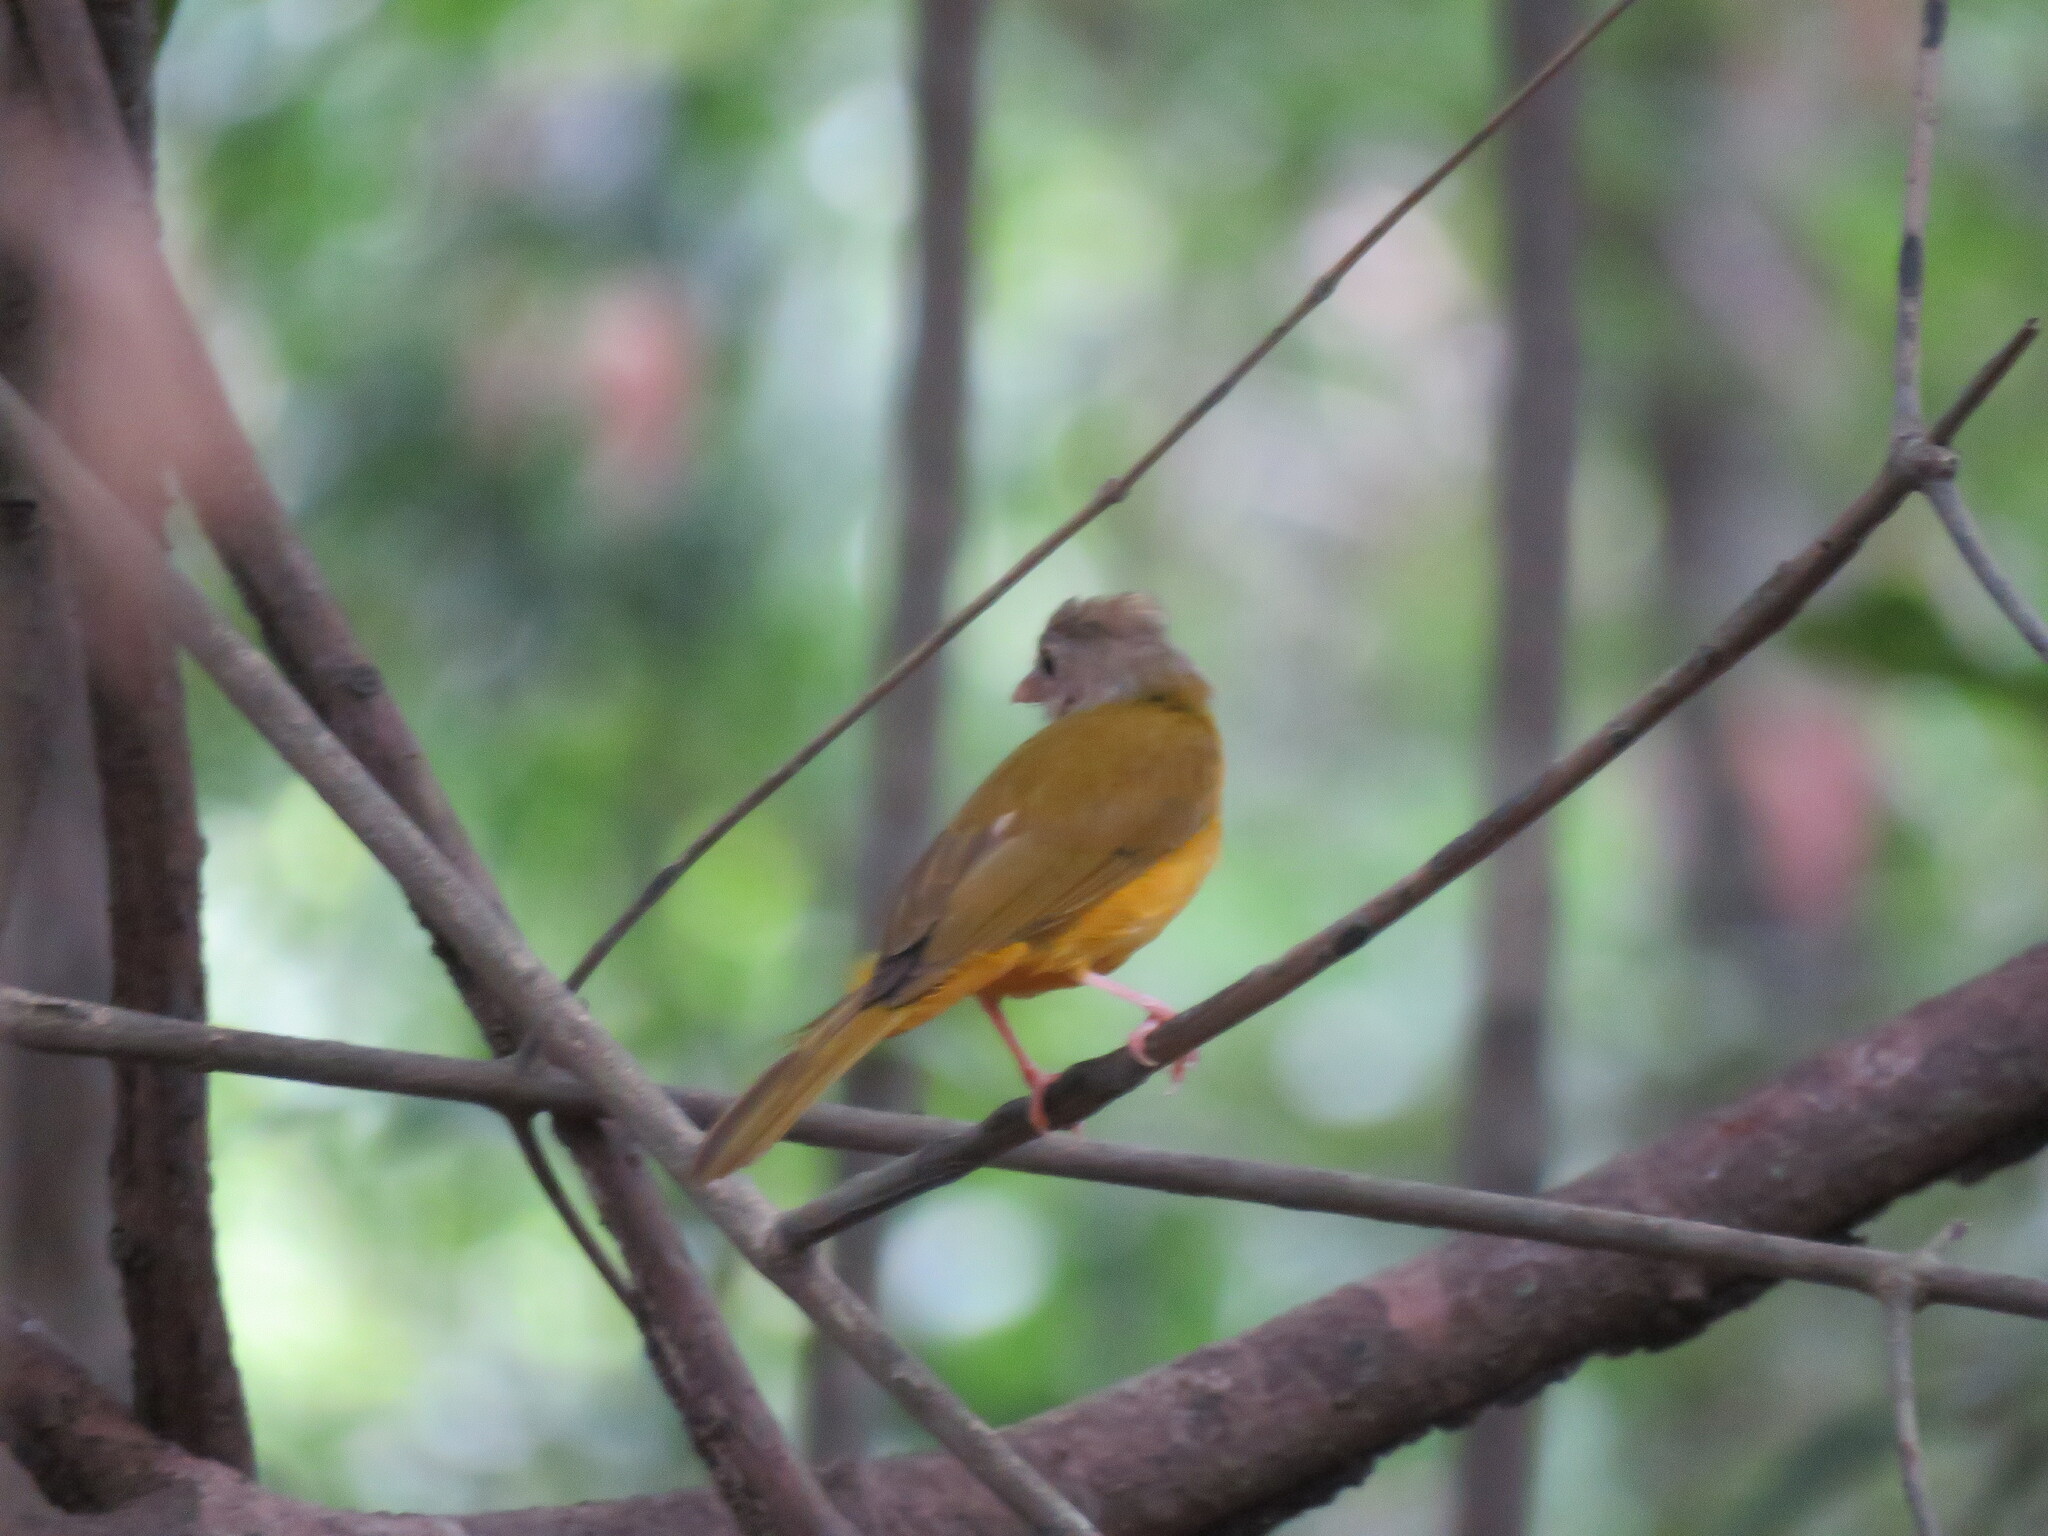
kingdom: Animalia
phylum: Chordata
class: Aves
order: Passeriformes
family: Thraupidae
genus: Eucometis
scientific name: Eucometis penicillata
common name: Grey-headed tanager
